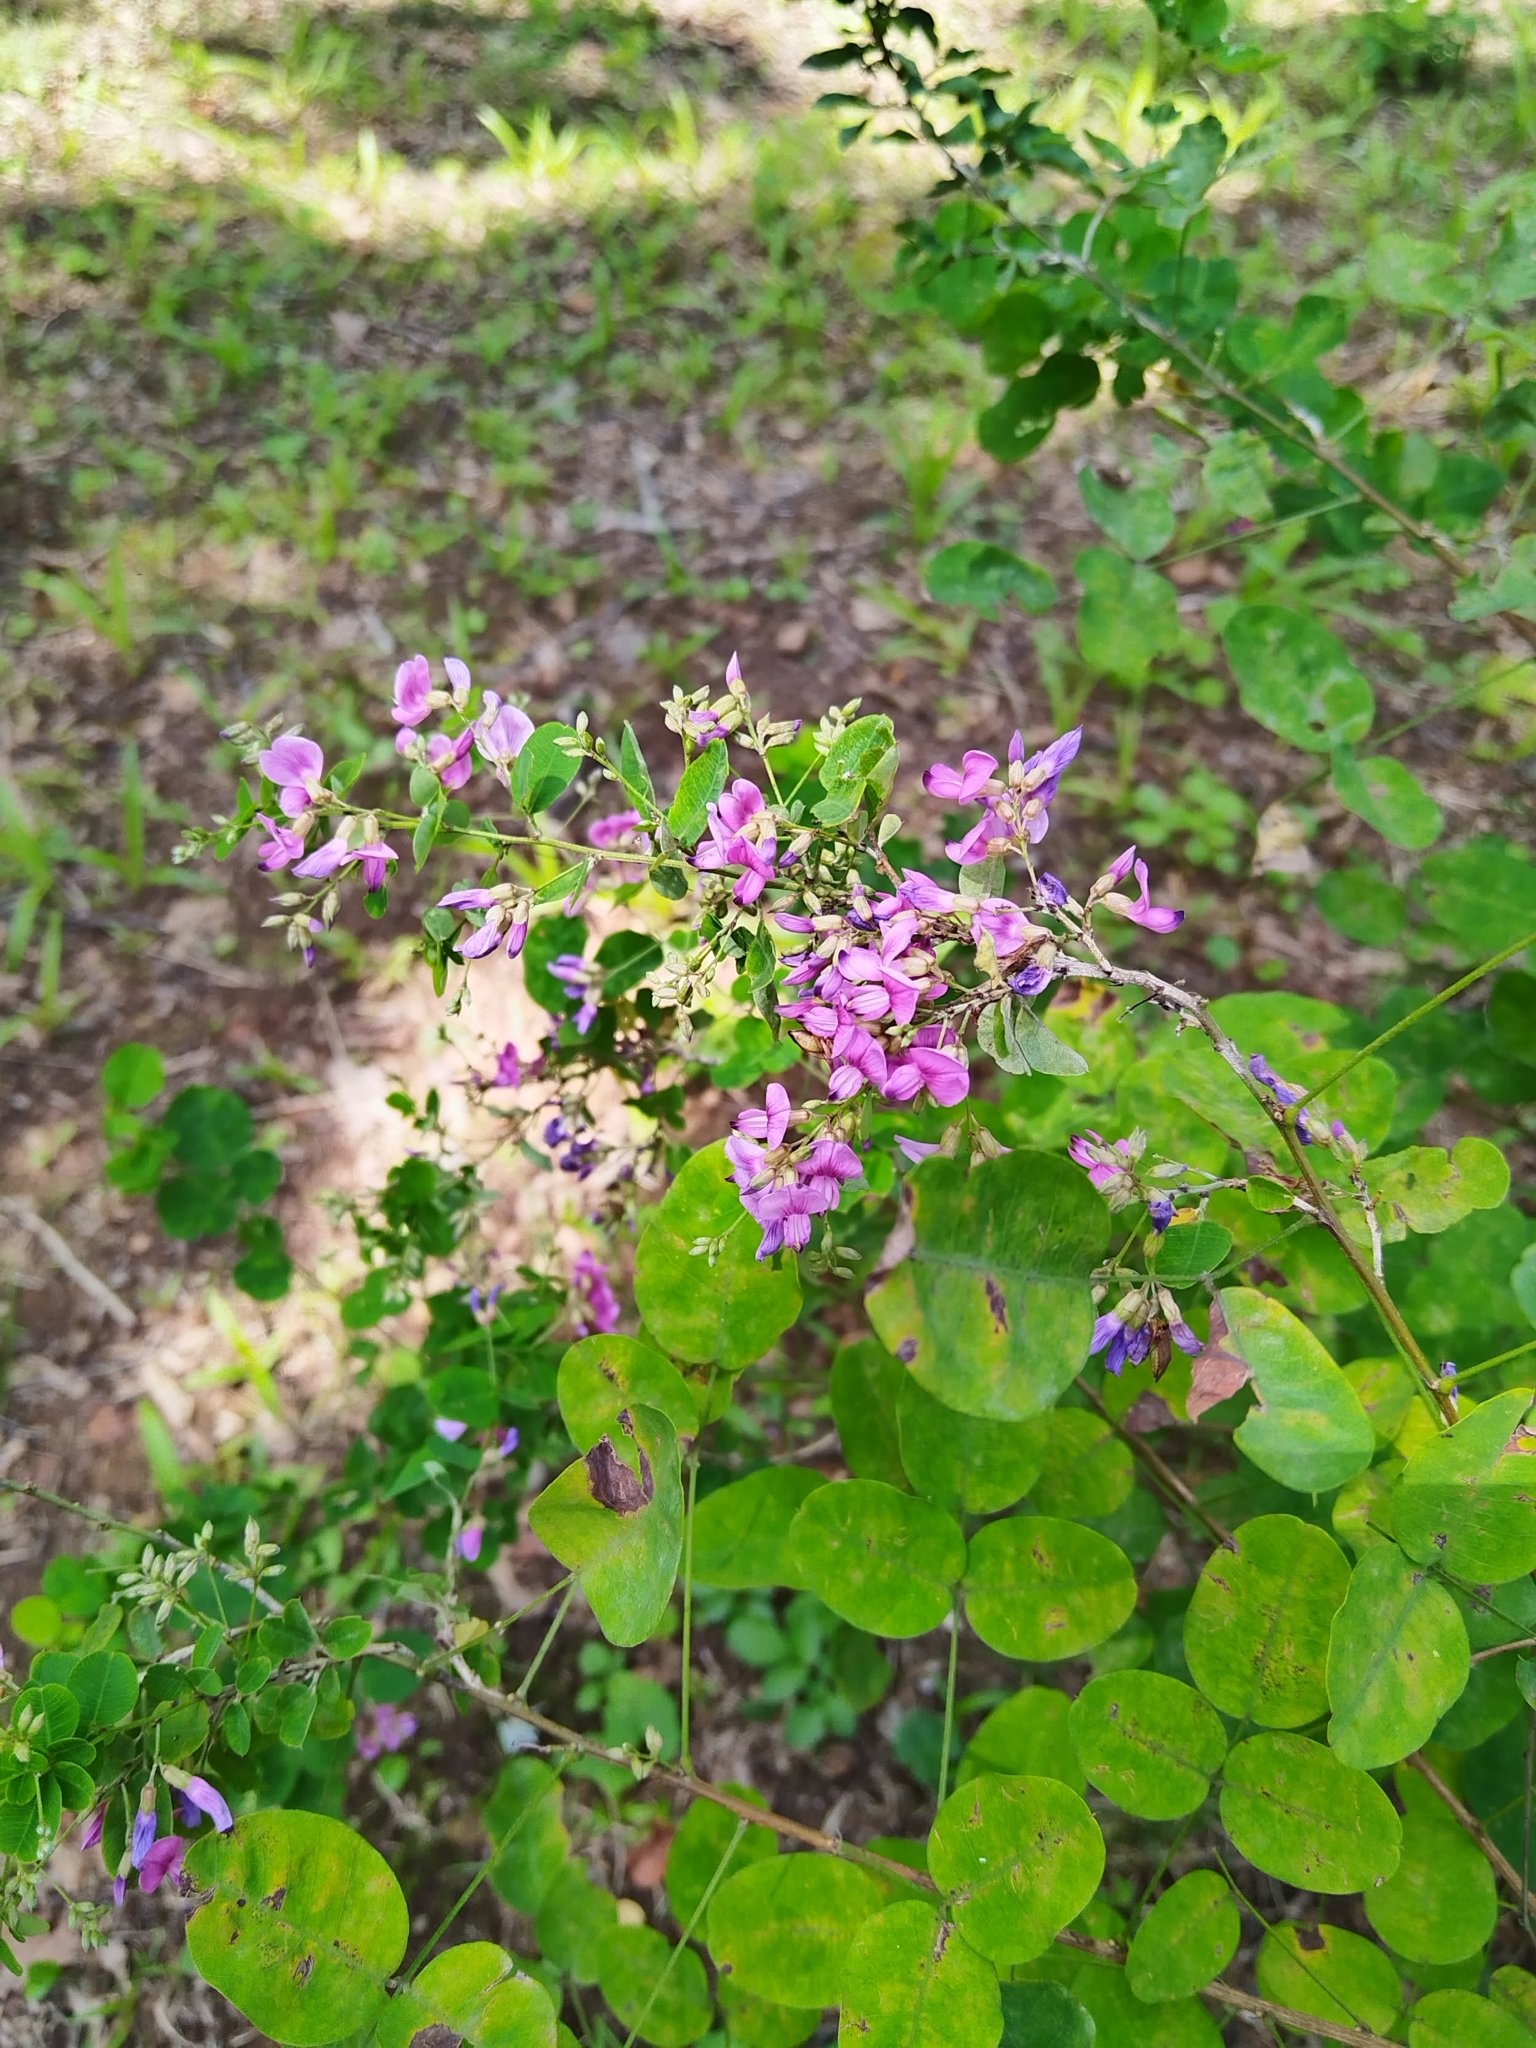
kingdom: Plantae
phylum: Tracheophyta
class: Magnoliopsida
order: Fabales
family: Fabaceae
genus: Lespedeza
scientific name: Lespedeza bicolor
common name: Shrub lespedeza
